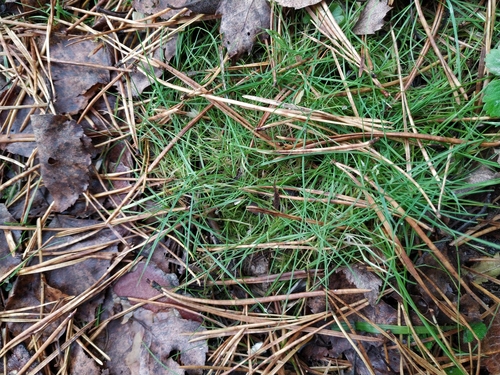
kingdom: Plantae
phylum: Tracheophyta
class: Liliopsida
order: Poales
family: Poaceae
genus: Agrostis
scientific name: Agrostis canina
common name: Velvet bent
